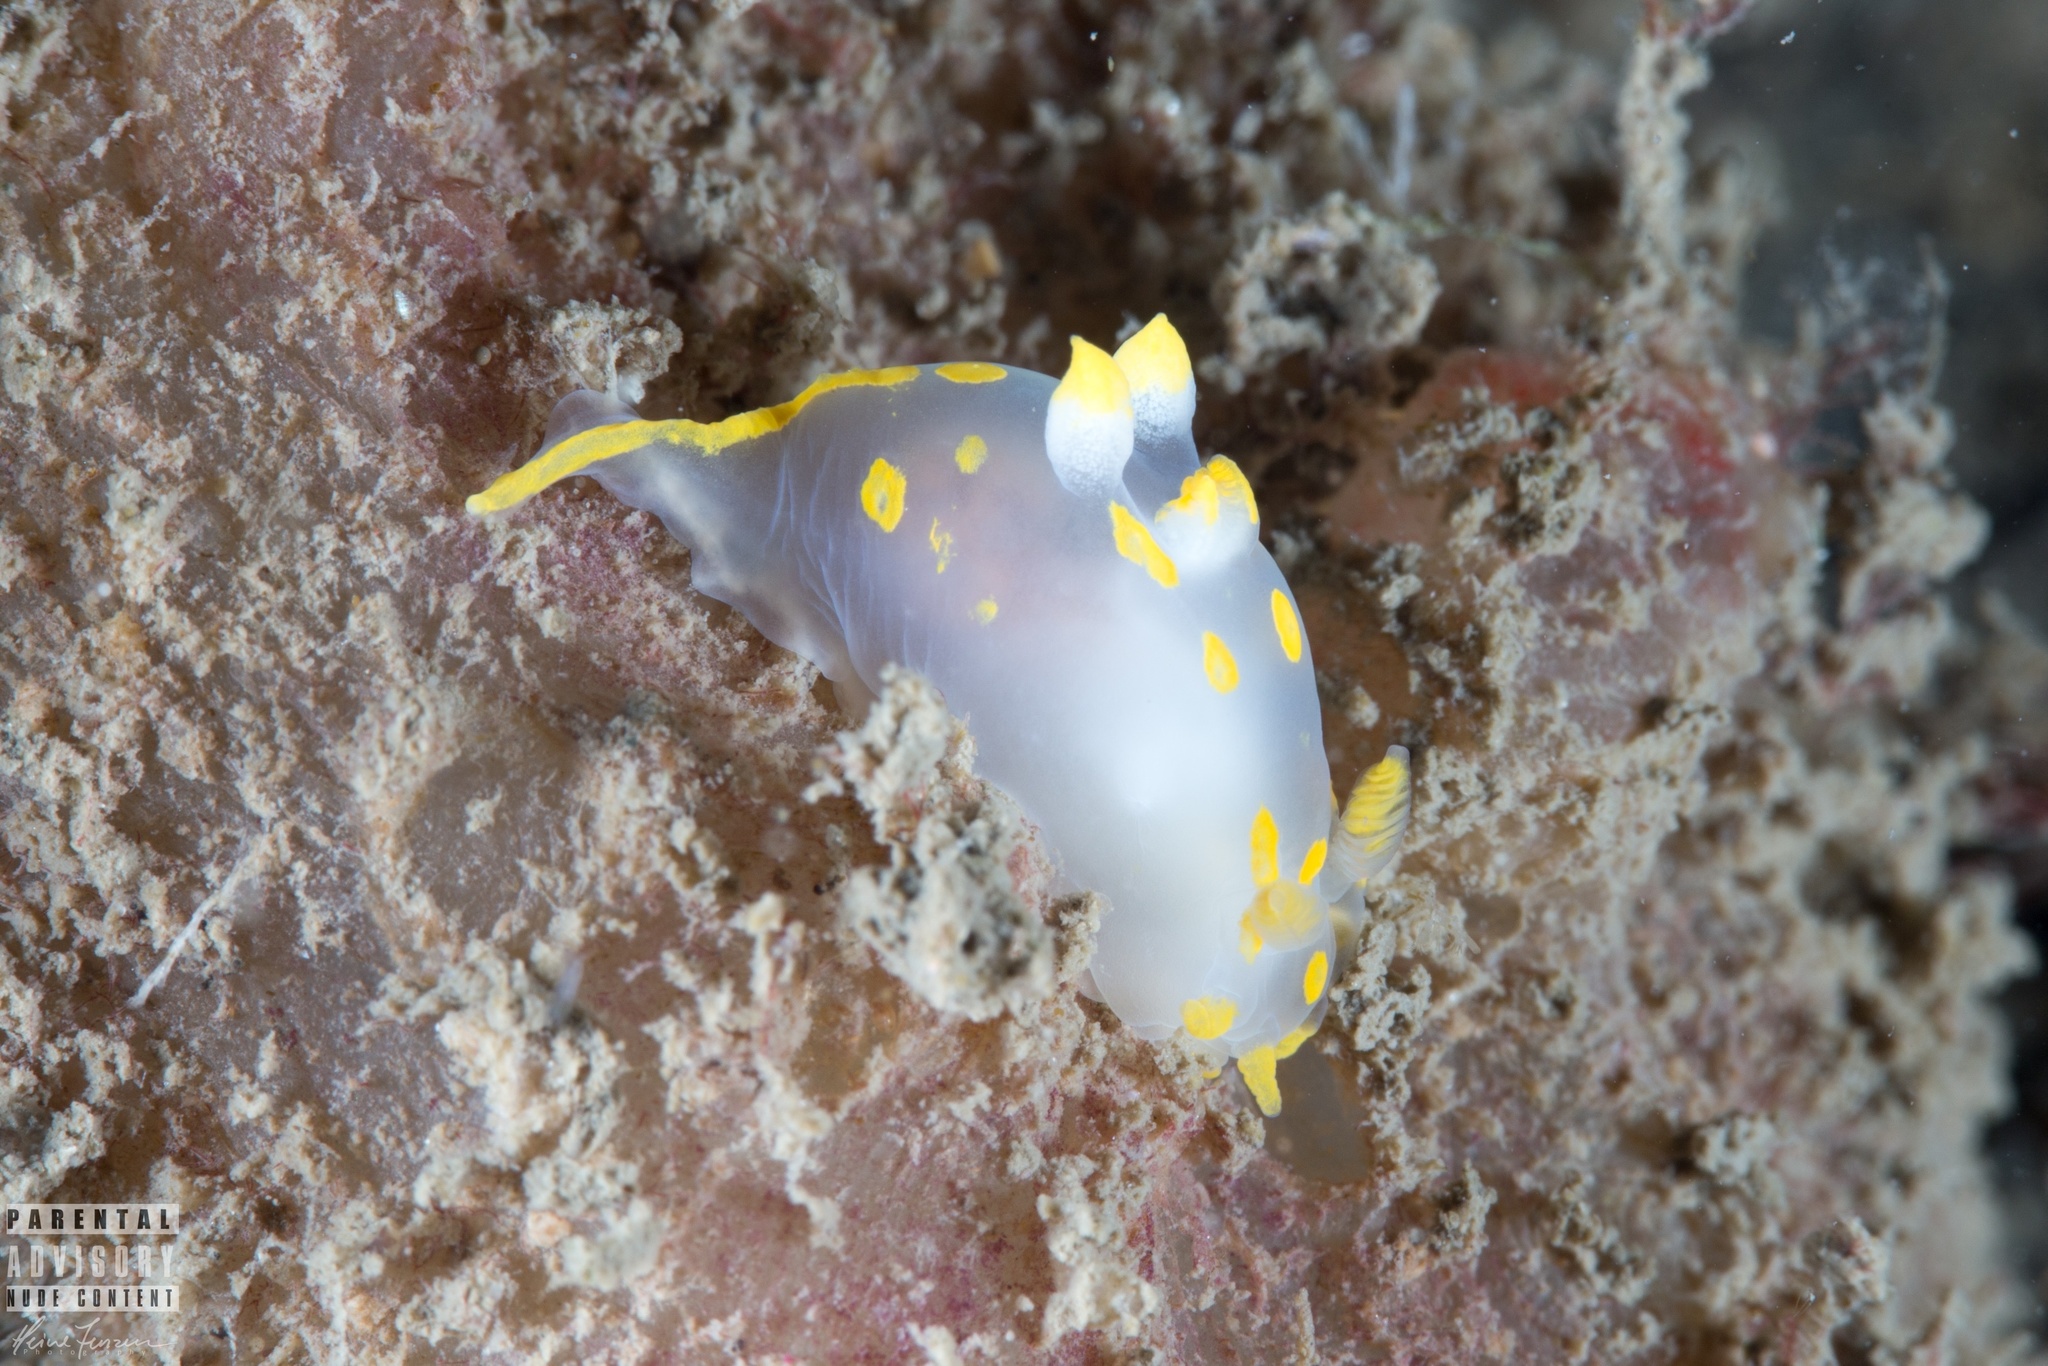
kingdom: Animalia
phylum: Mollusca
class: Gastropoda
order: Nudibranchia
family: Polyceridae
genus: Polycera
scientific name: Polycera quadrilineata
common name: Four-striped polycera
